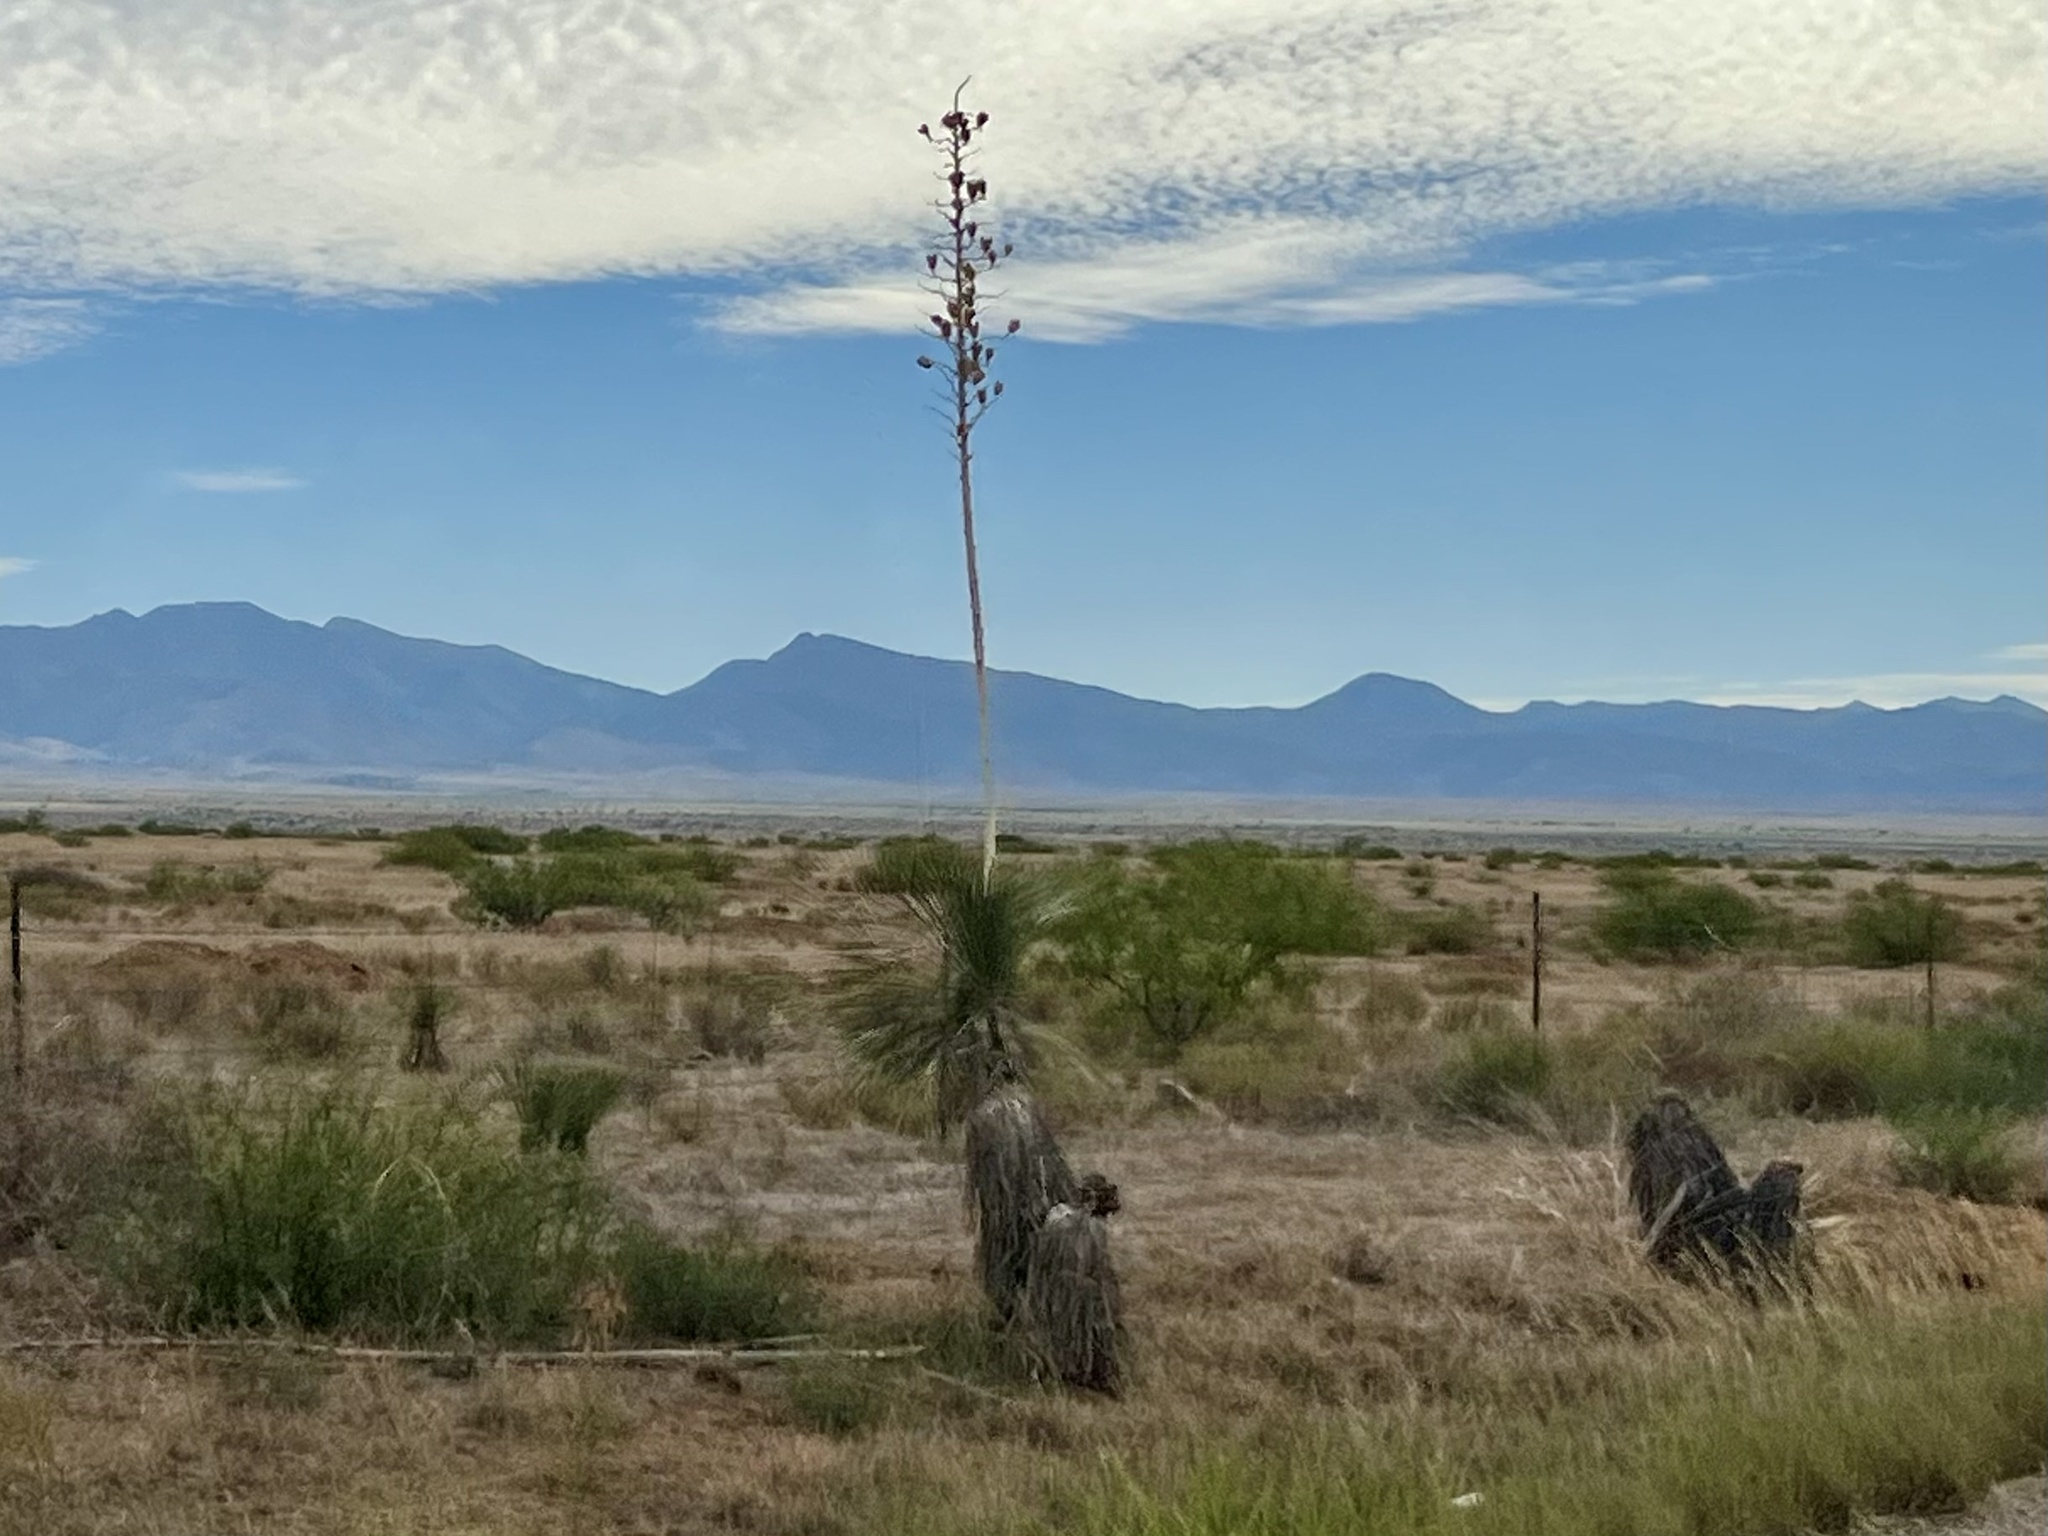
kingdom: Plantae
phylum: Tracheophyta
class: Liliopsida
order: Asparagales
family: Asparagaceae
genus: Yucca
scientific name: Yucca elata
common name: Palmella
